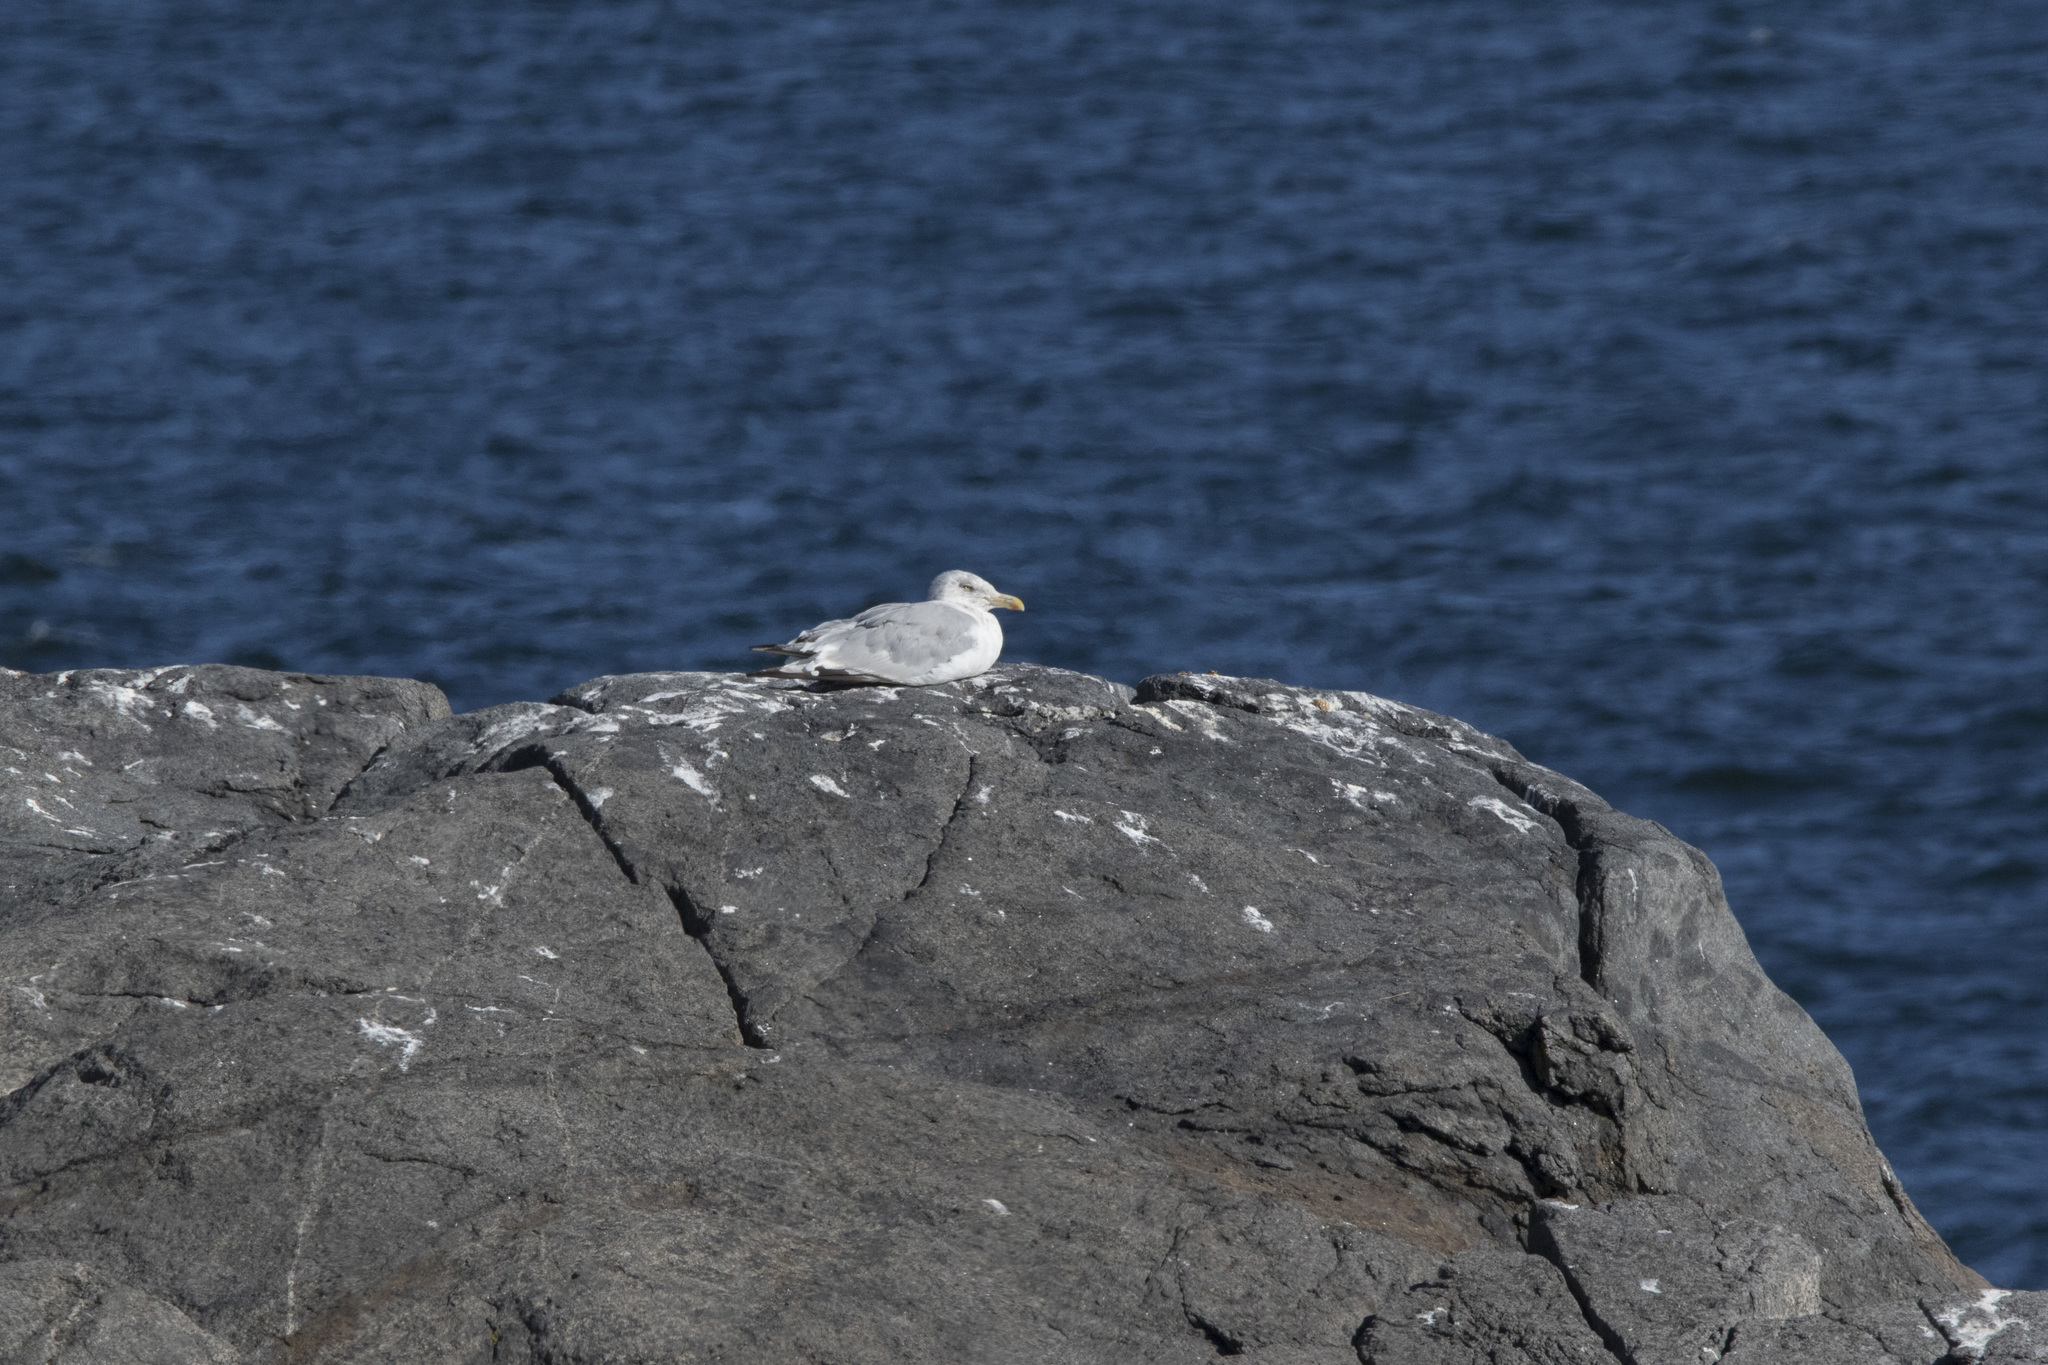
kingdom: Animalia
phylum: Chordata
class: Aves
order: Charadriiformes
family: Laridae
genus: Larus
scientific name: Larus argentatus
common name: Herring gull
